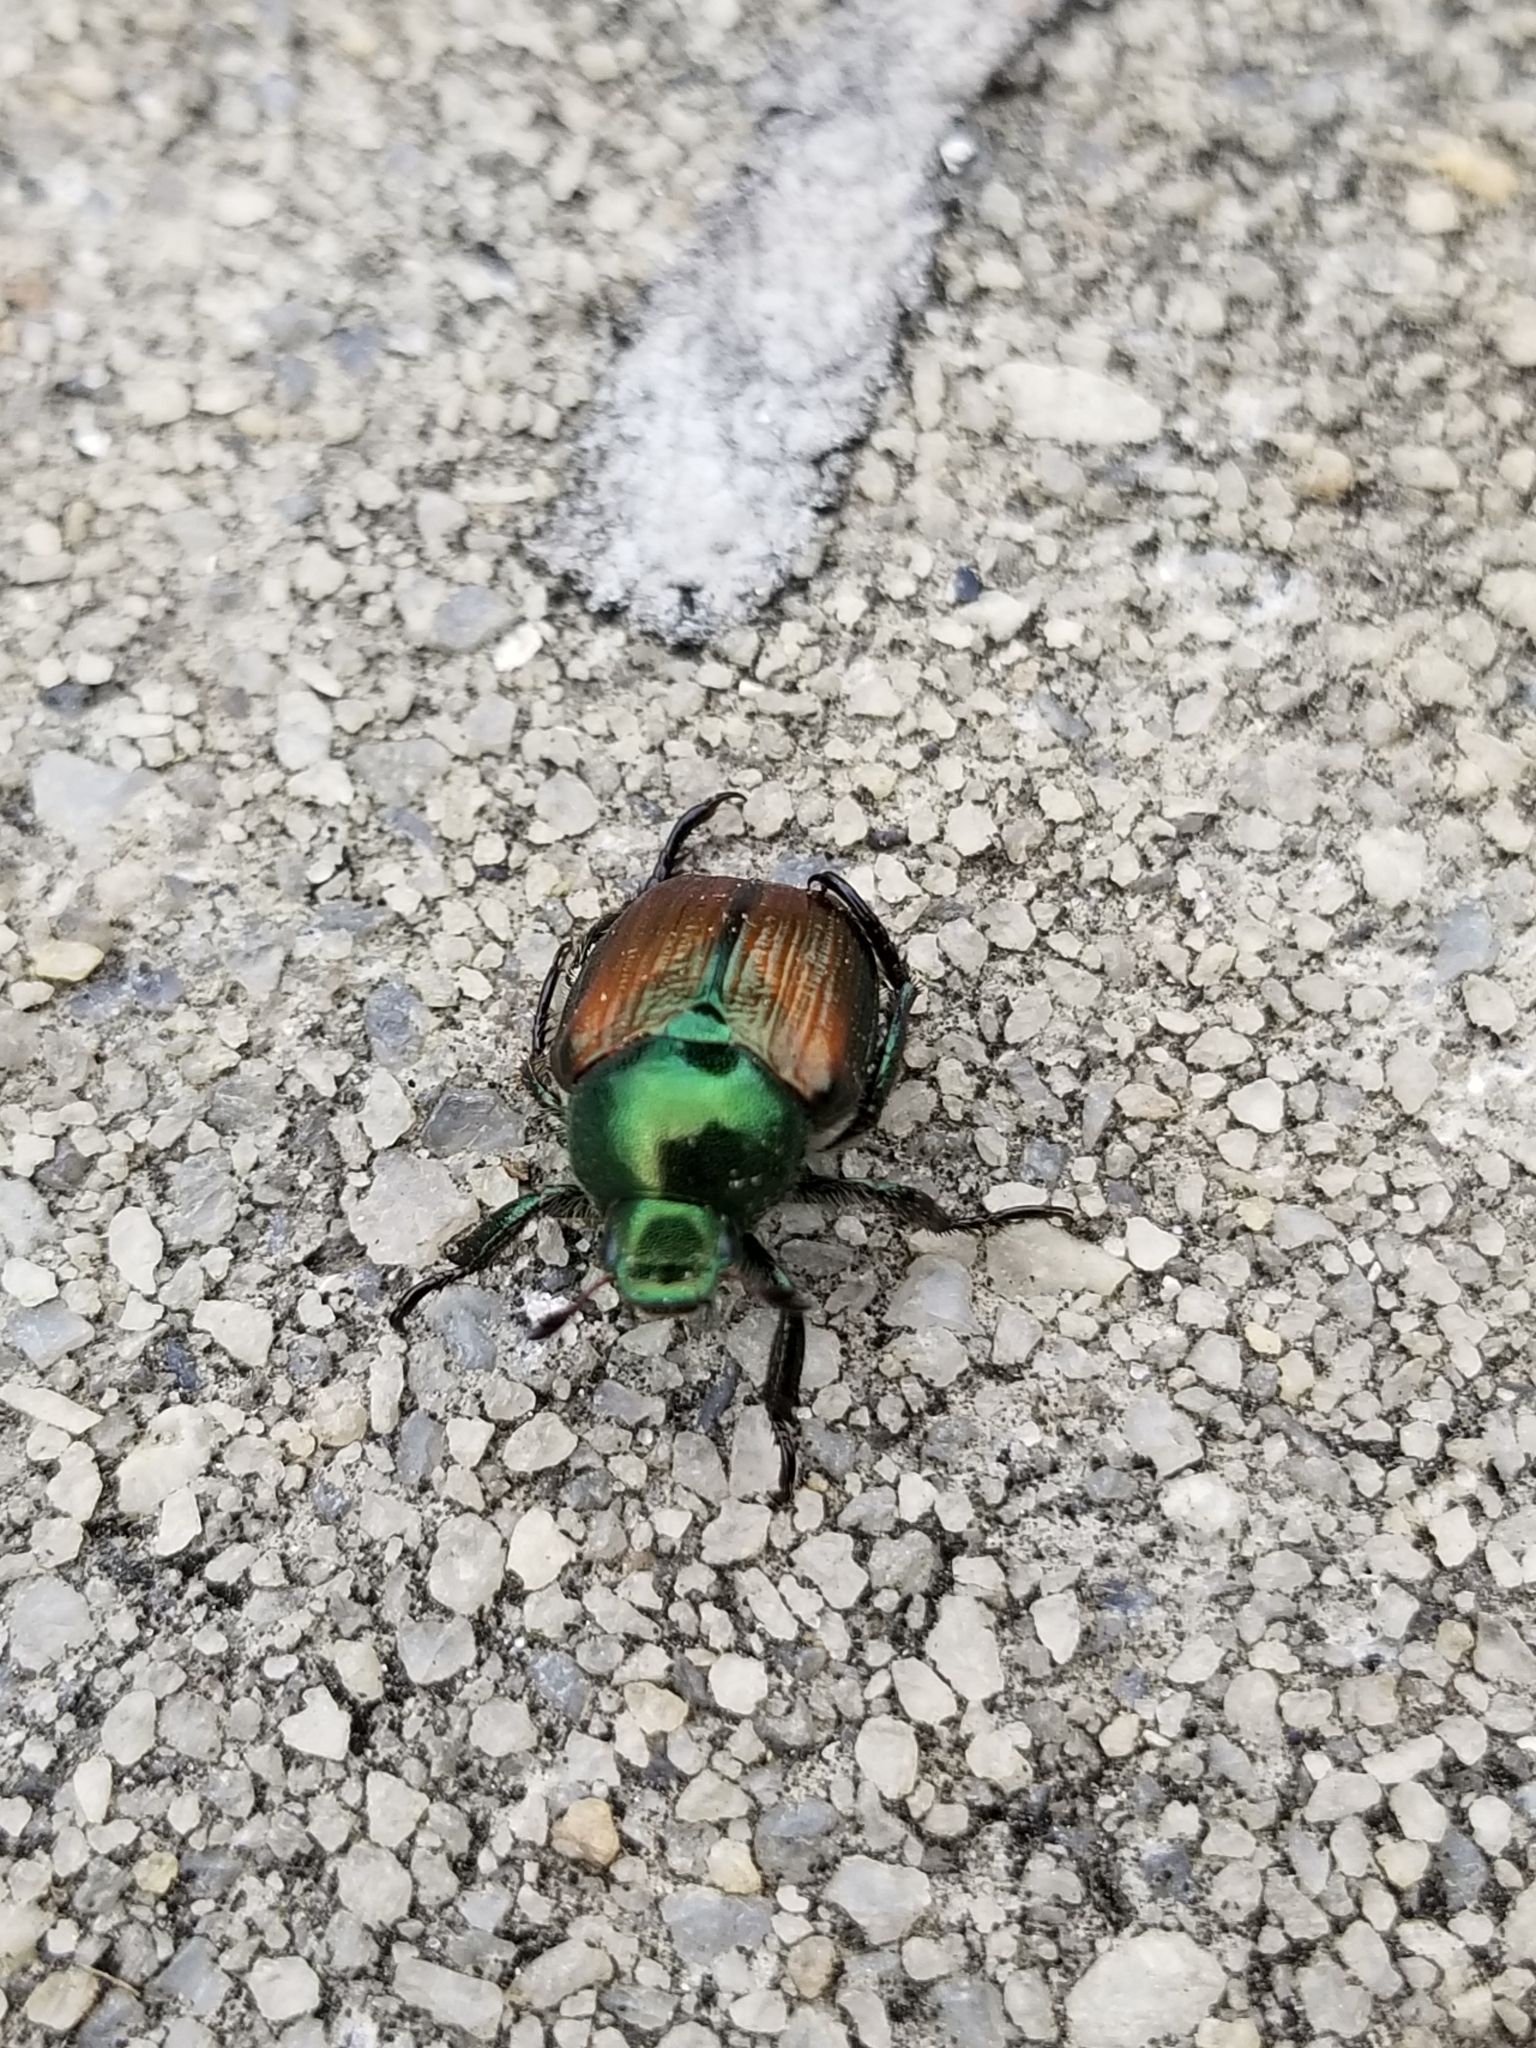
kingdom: Animalia
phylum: Arthropoda
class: Insecta
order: Coleoptera
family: Scarabaeidae
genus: Popillia
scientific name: Popillia japonica
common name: Japanese beetle
